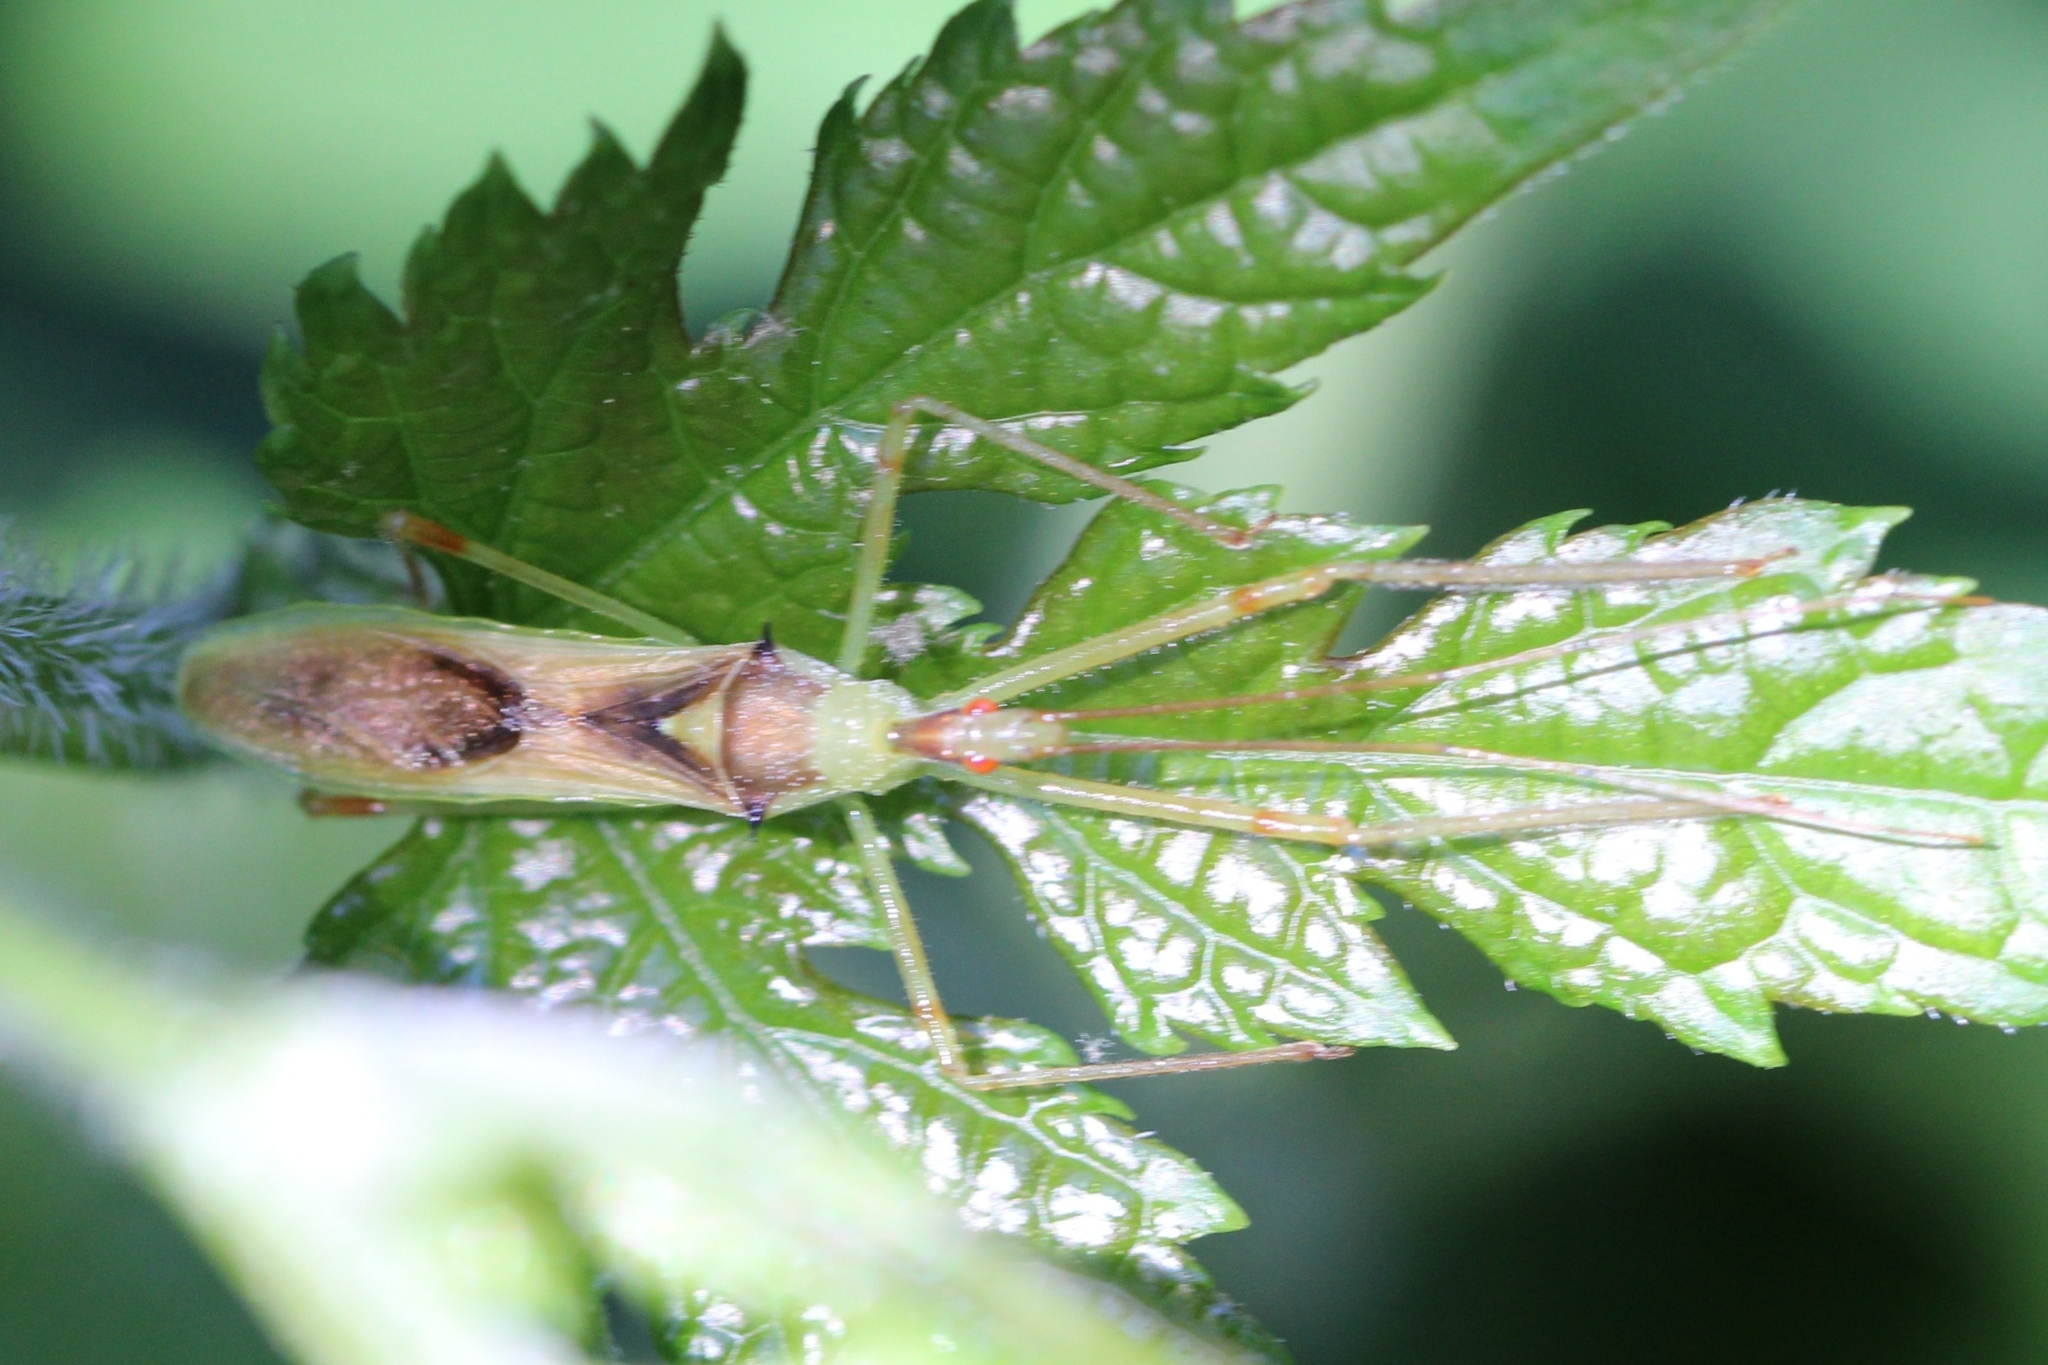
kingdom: Animalia
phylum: Arthropoda
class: Insecta
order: Hemiptera
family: Reduviidae
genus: Zelus
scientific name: Zelus luridus
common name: Pale green assassin bug
